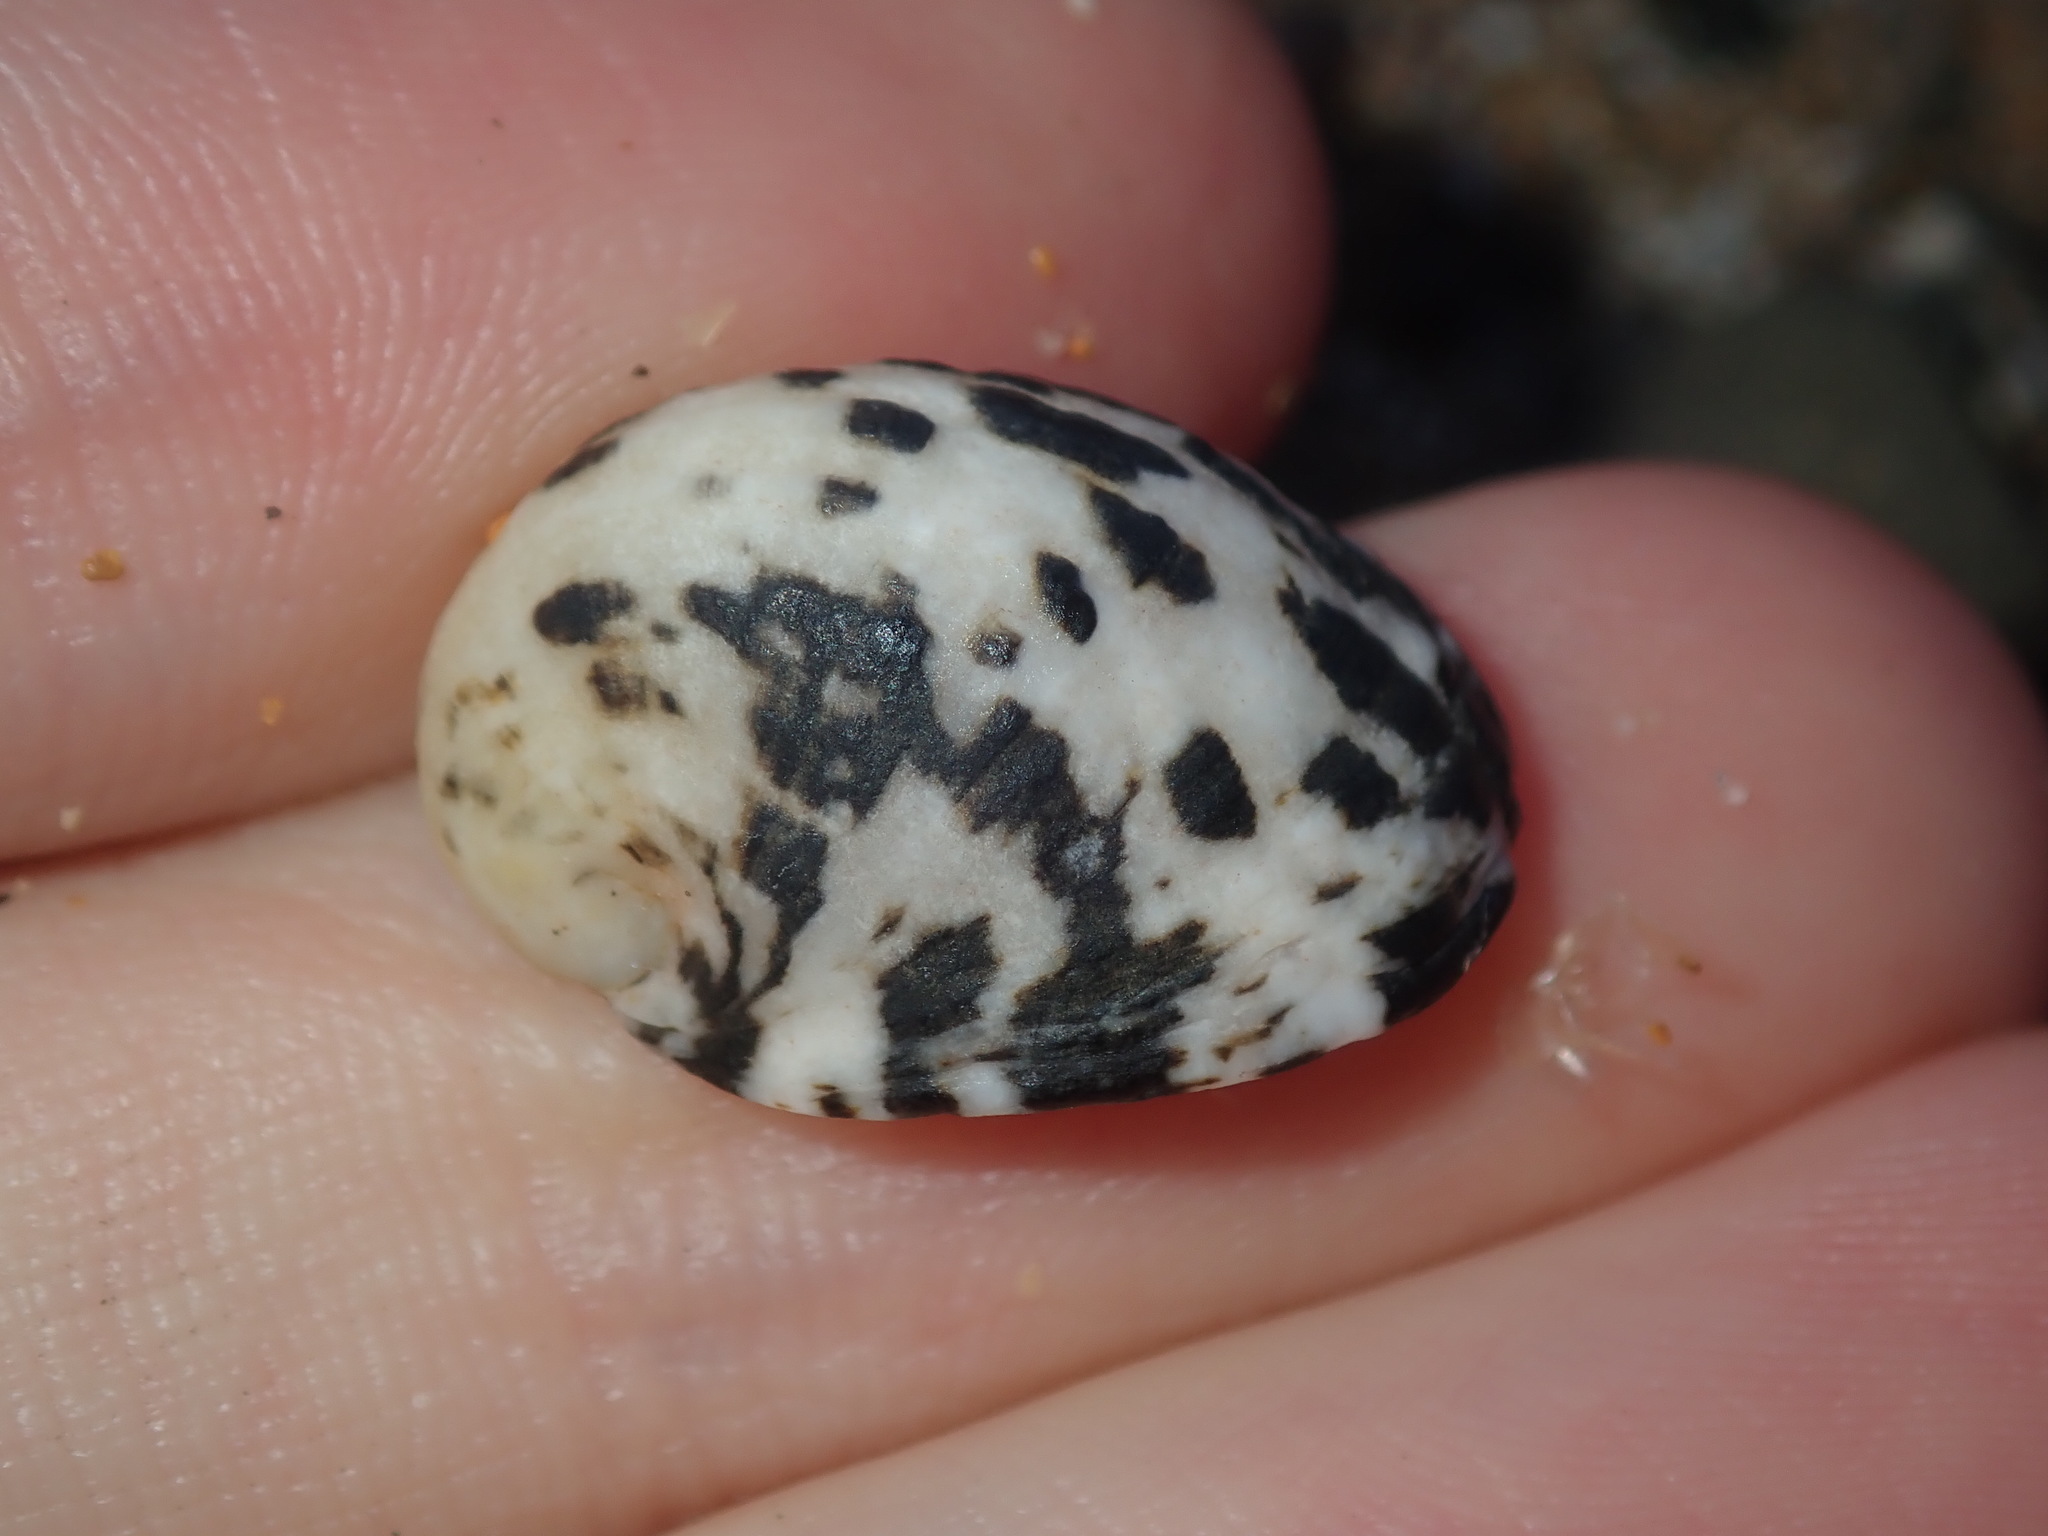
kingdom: Animalia
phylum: Mollusca
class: Gastropoda
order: Cycloneritida
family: Neritidae
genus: Nerita
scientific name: Nerita albicilla
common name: Blotched nerite
